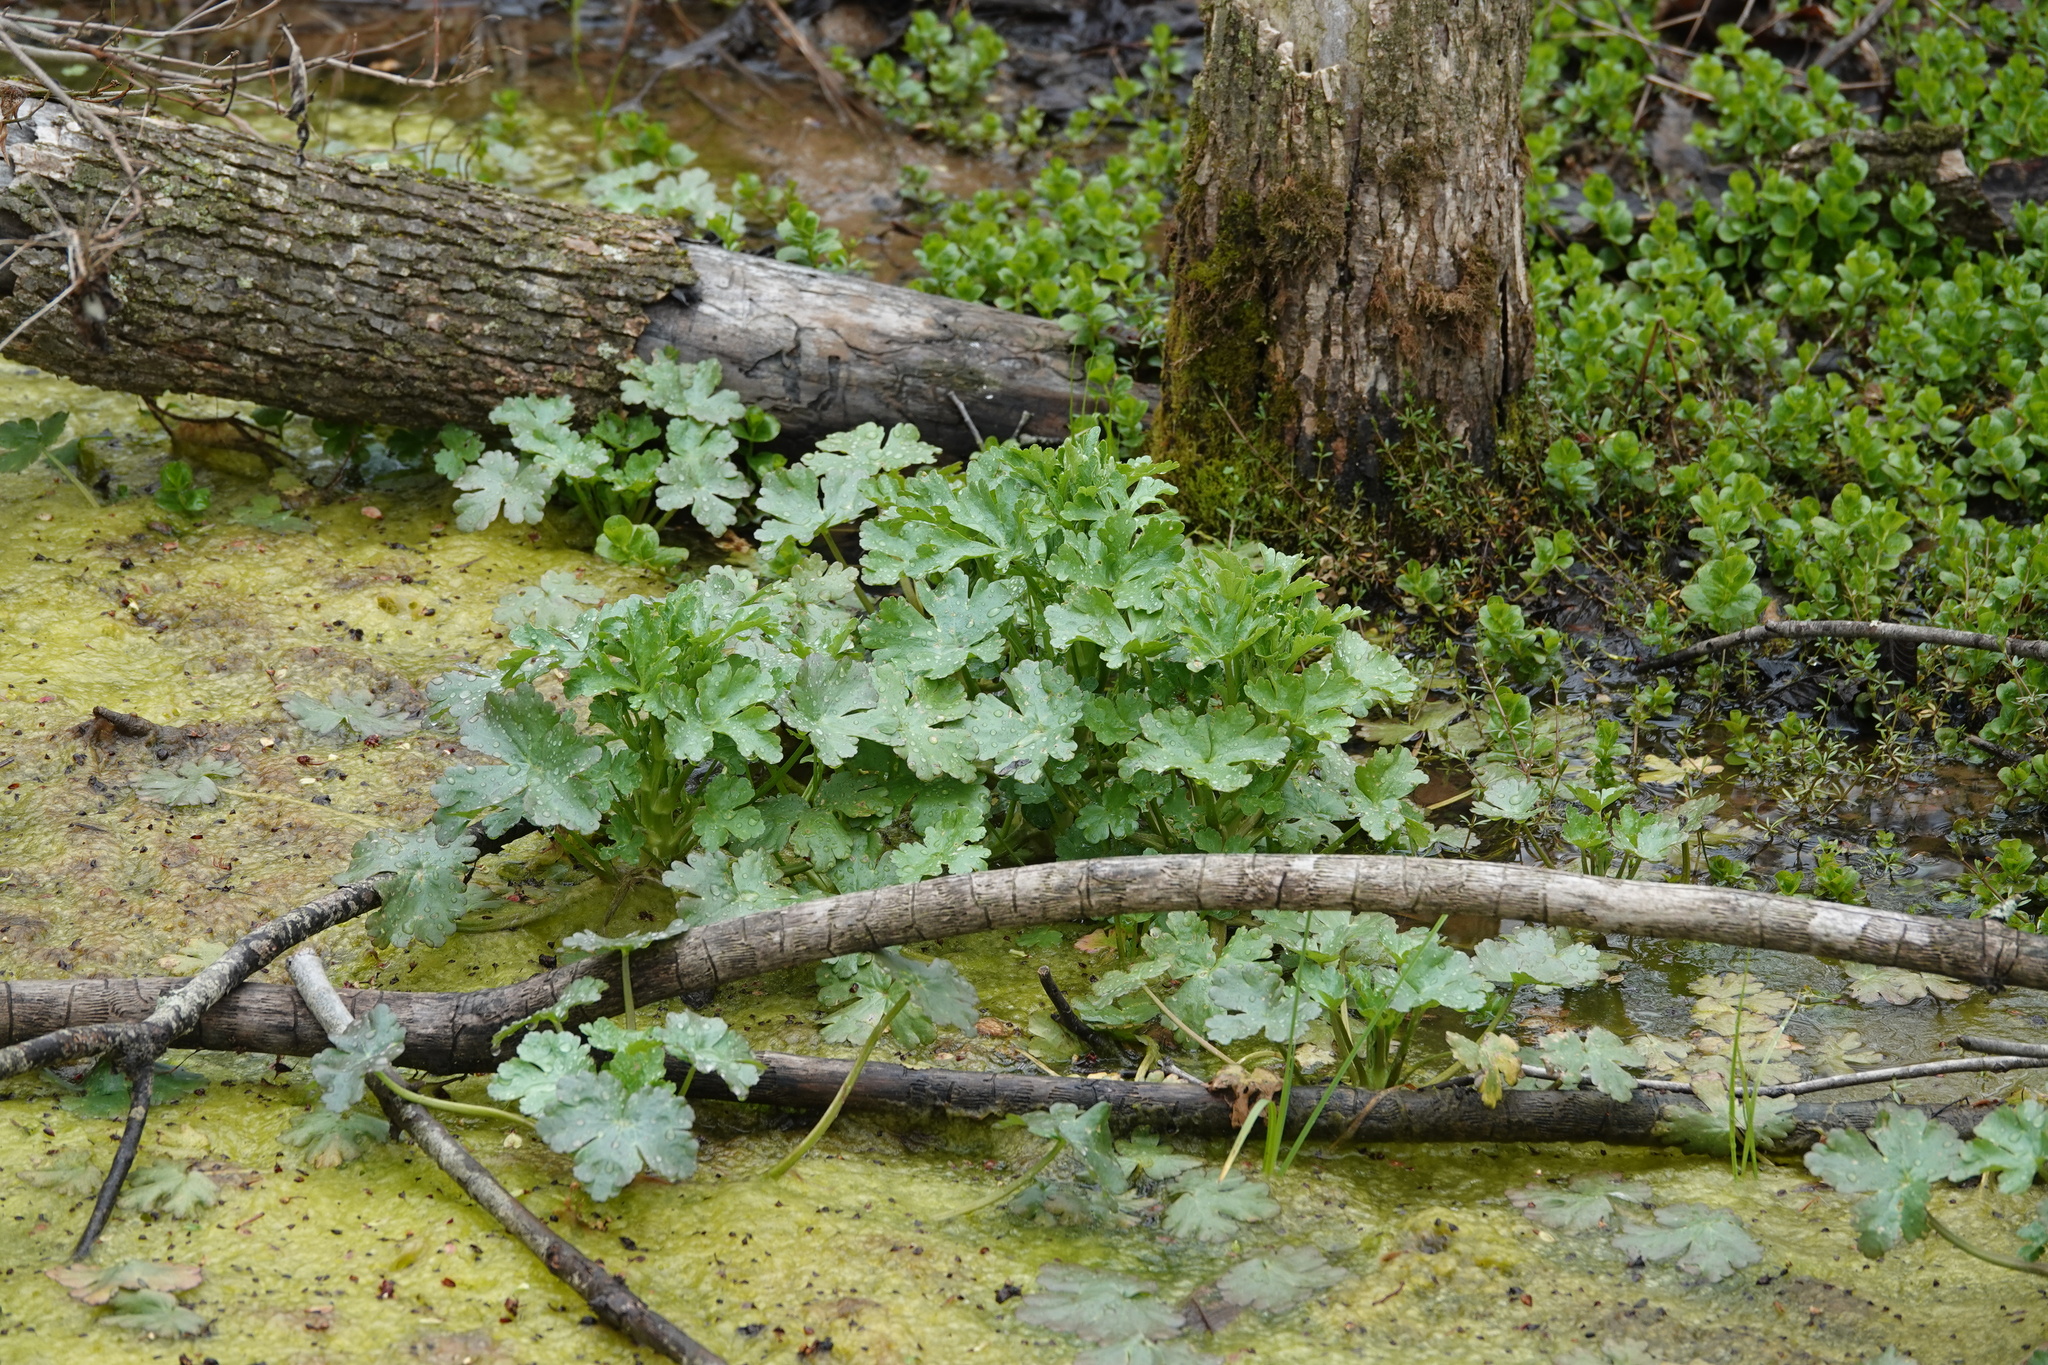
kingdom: Plantae
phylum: Tracheophyta
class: Magnoliopsida
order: Ranunculales
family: Ranunculaceae
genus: Ranunculus
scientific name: Ranunculus sceleratus
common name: Celery-leaved buttercup
